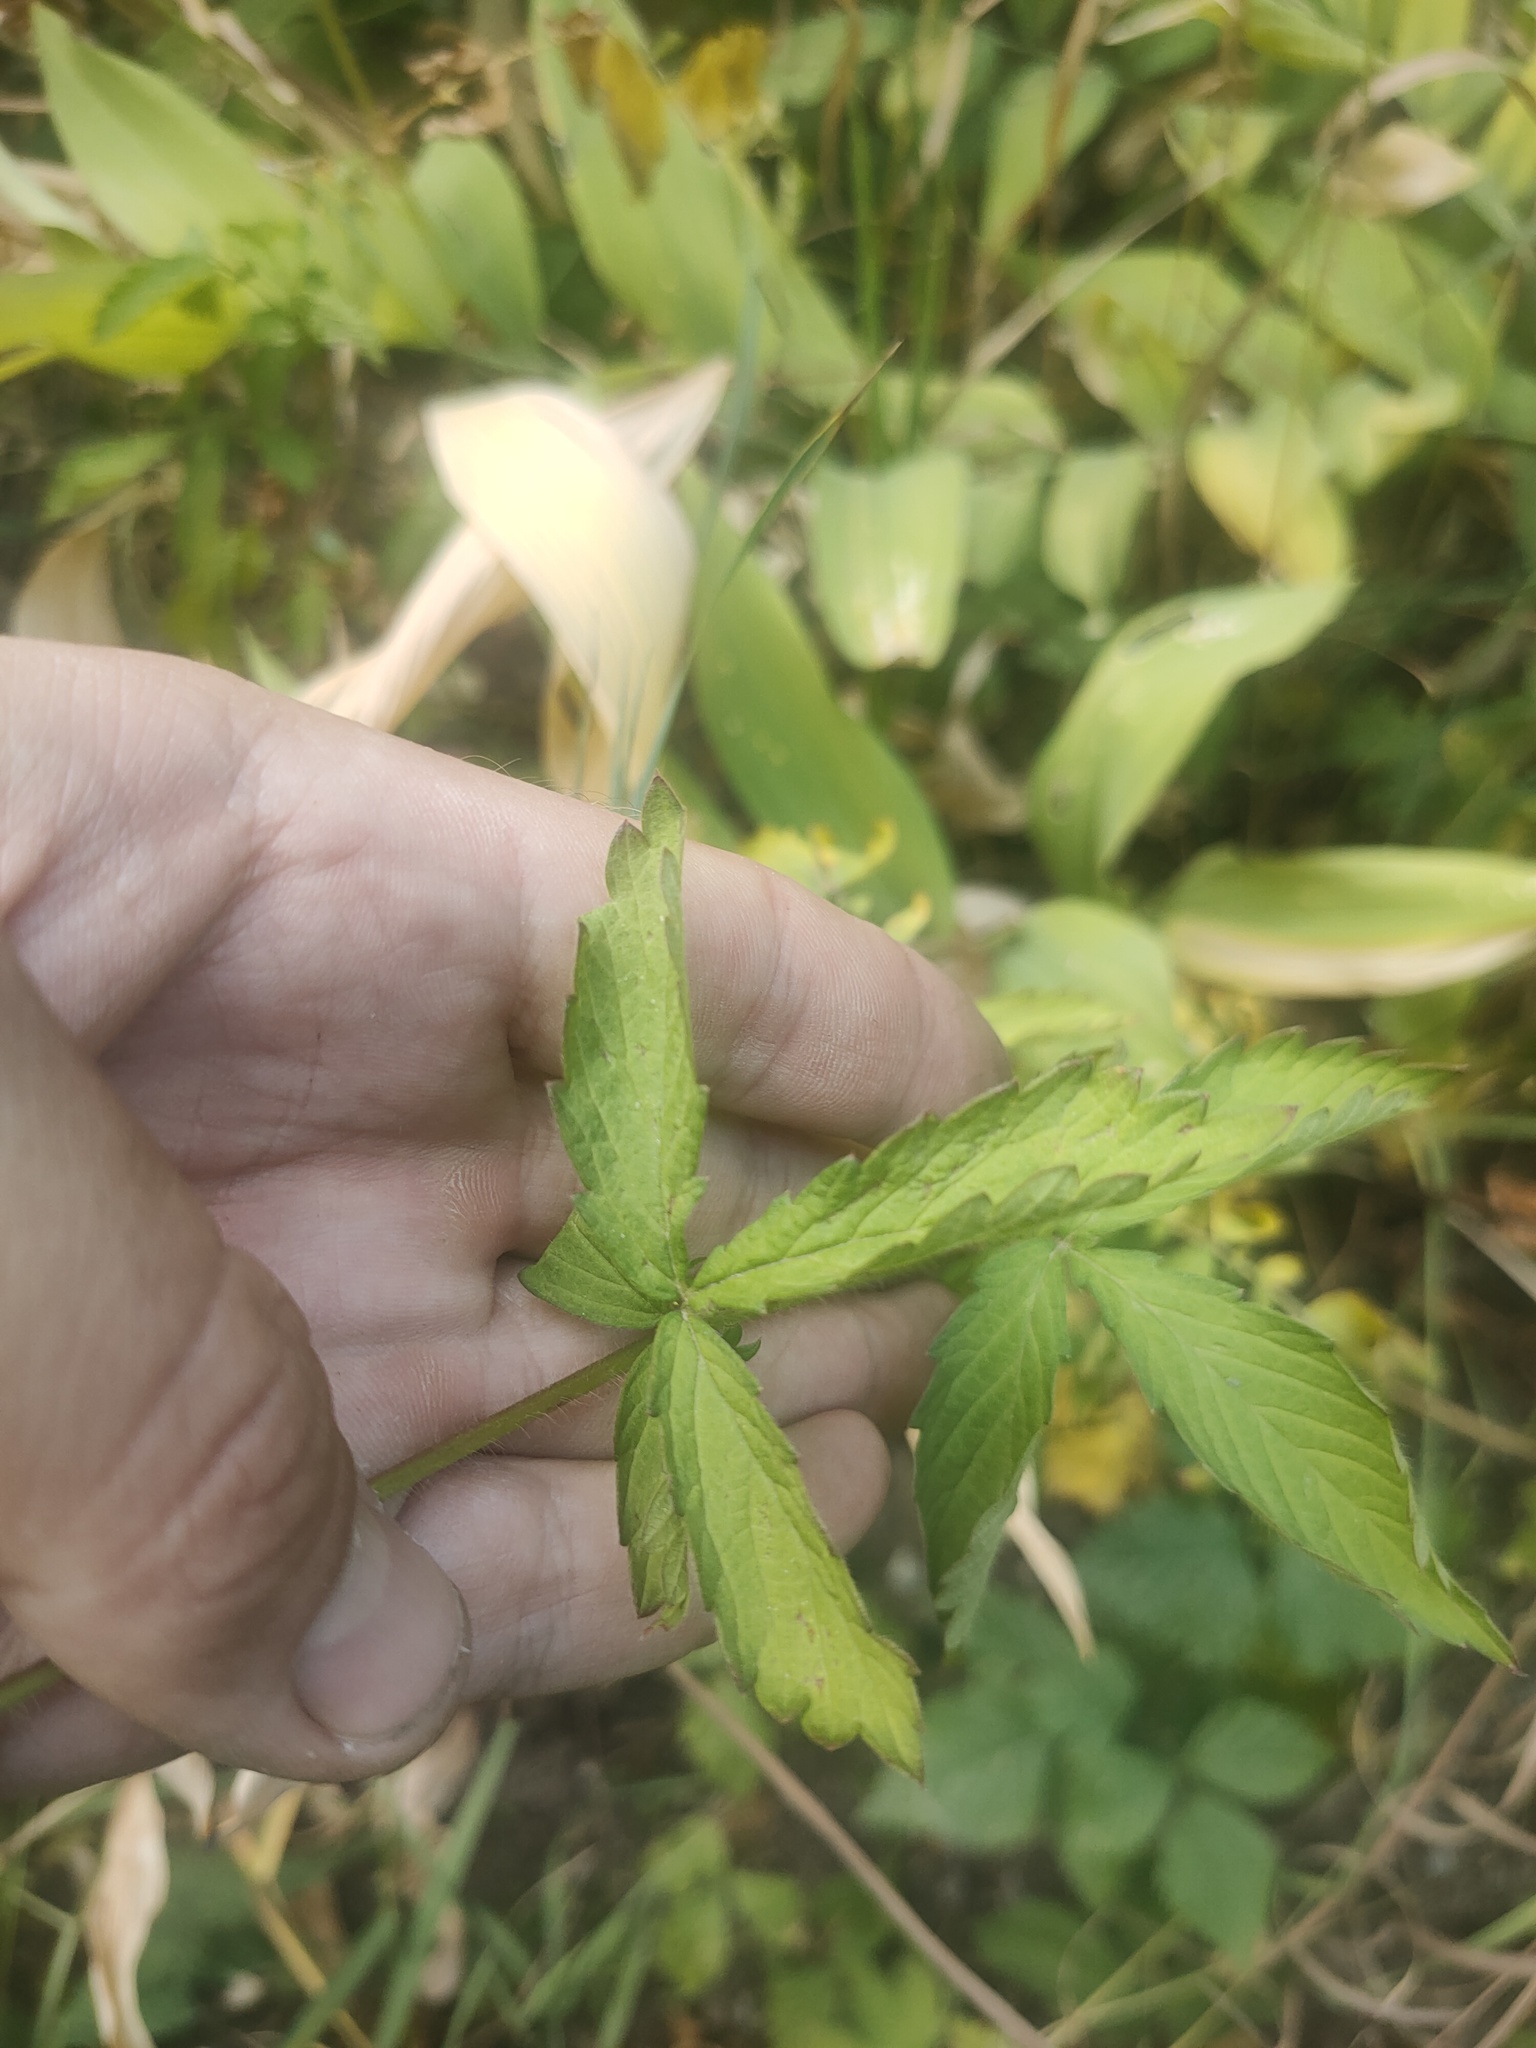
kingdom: Plantae
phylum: Tracheophyta
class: Magnoliopsida
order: Rosales
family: Rosaceae
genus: Agrimonia
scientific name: Agrimonia pilosa
